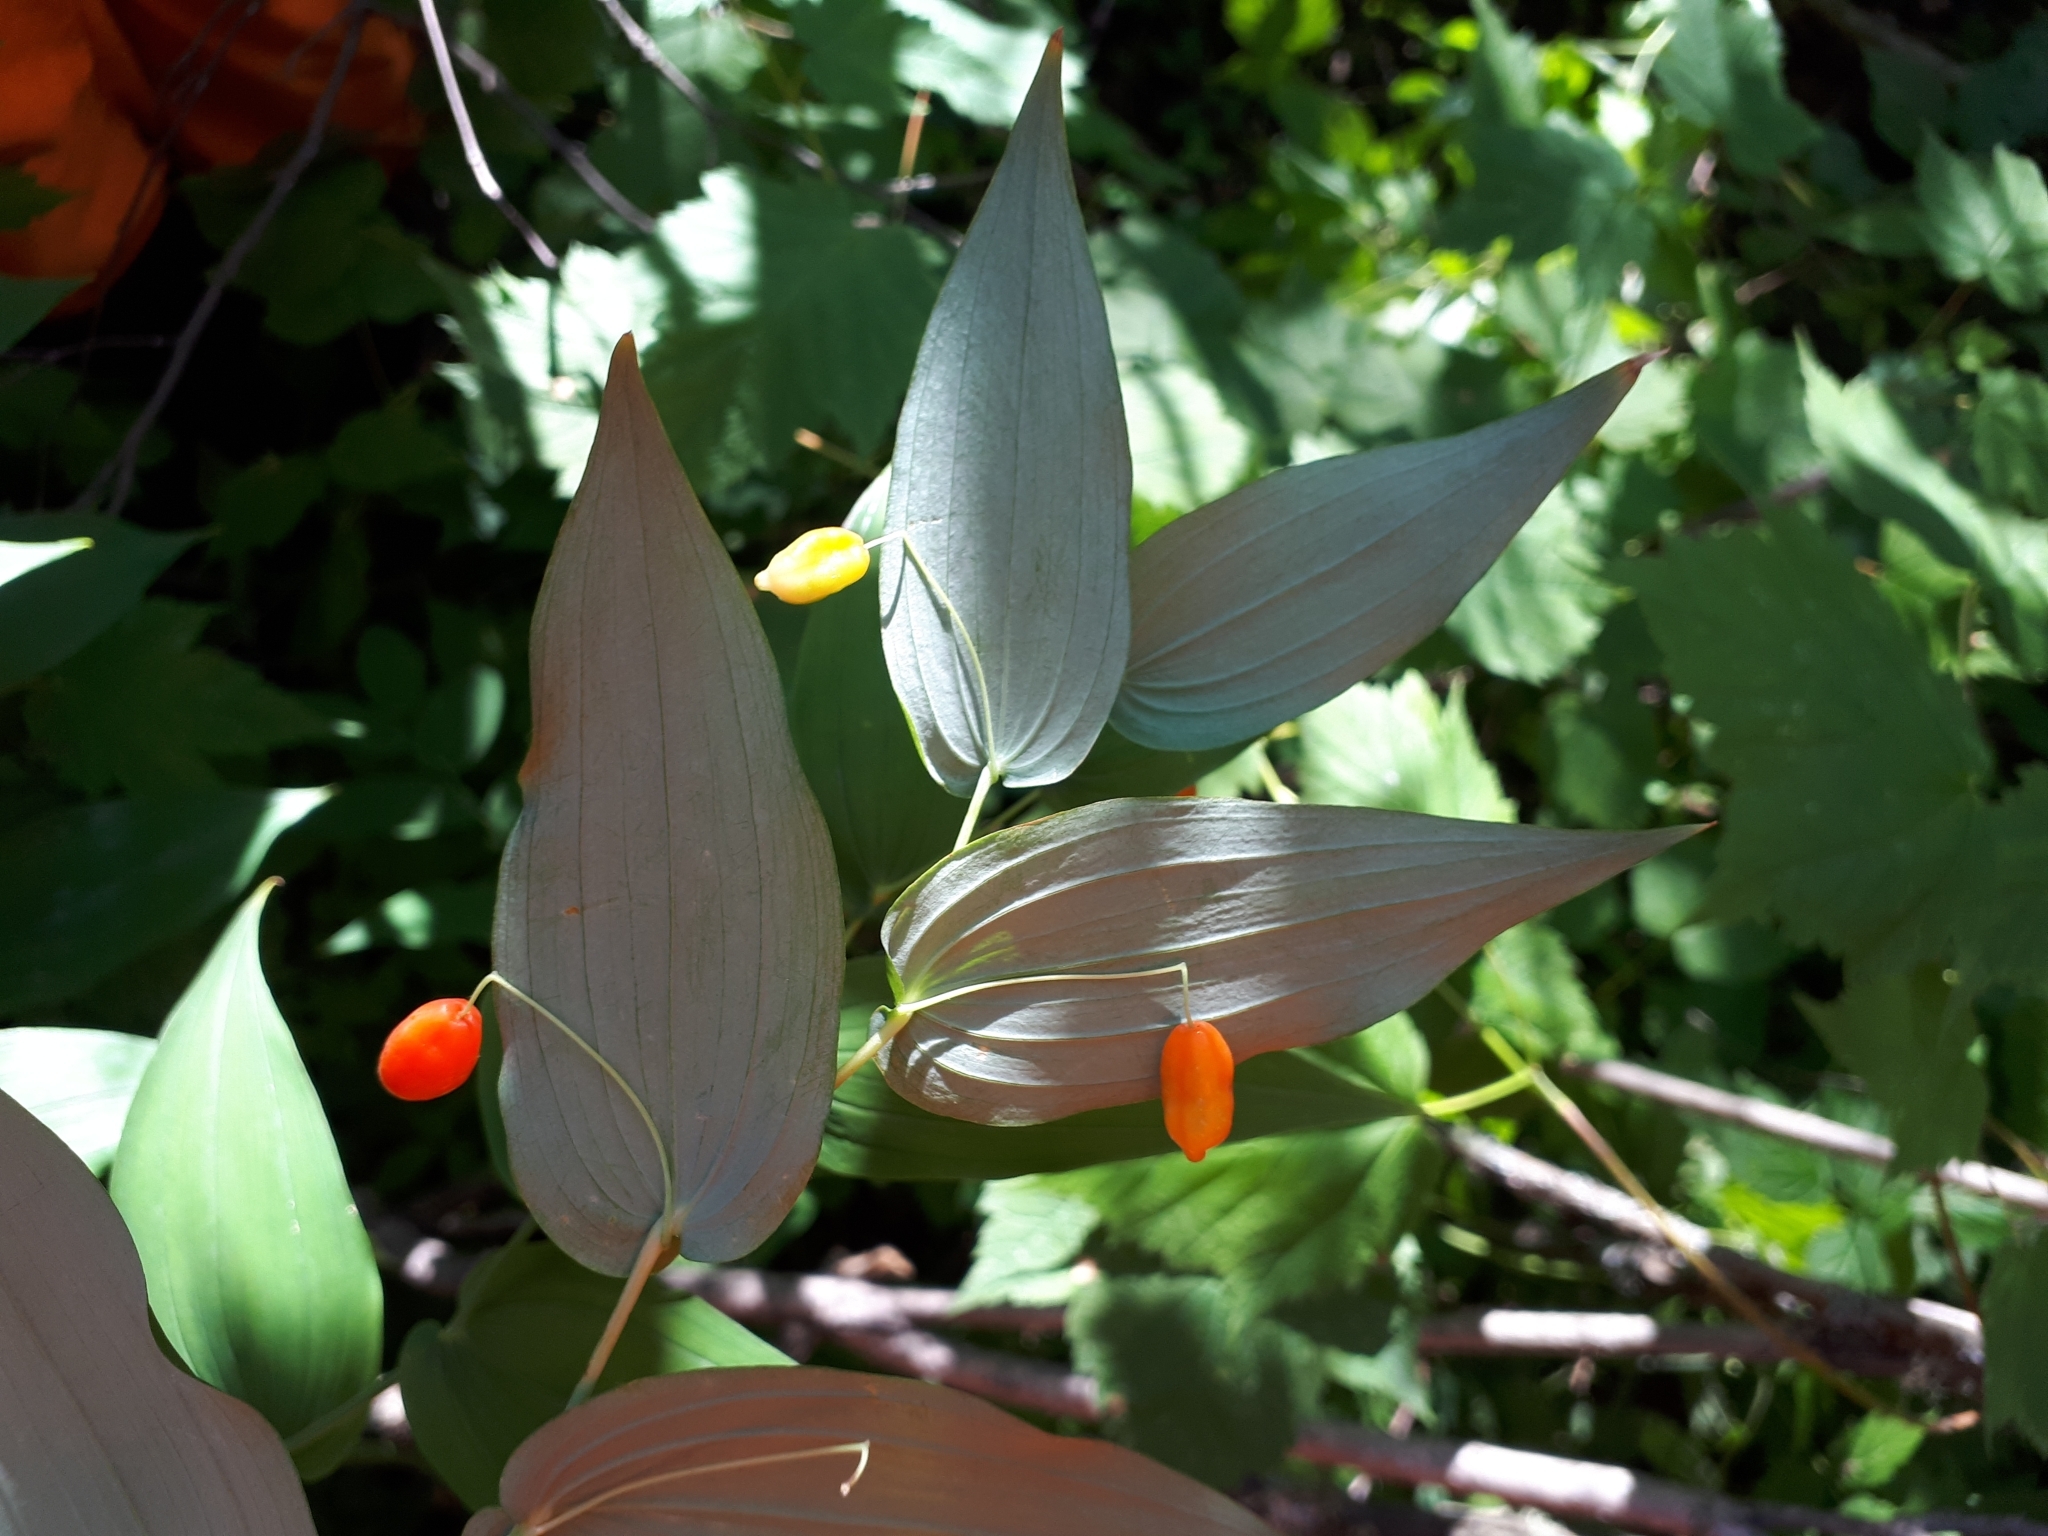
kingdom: Plantae
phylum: Tracheophyta
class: Liliopsida
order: Liliales
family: Liliaceae
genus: Streptopus
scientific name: Streptopus amplexifolius
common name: Clasp twisted stalk
